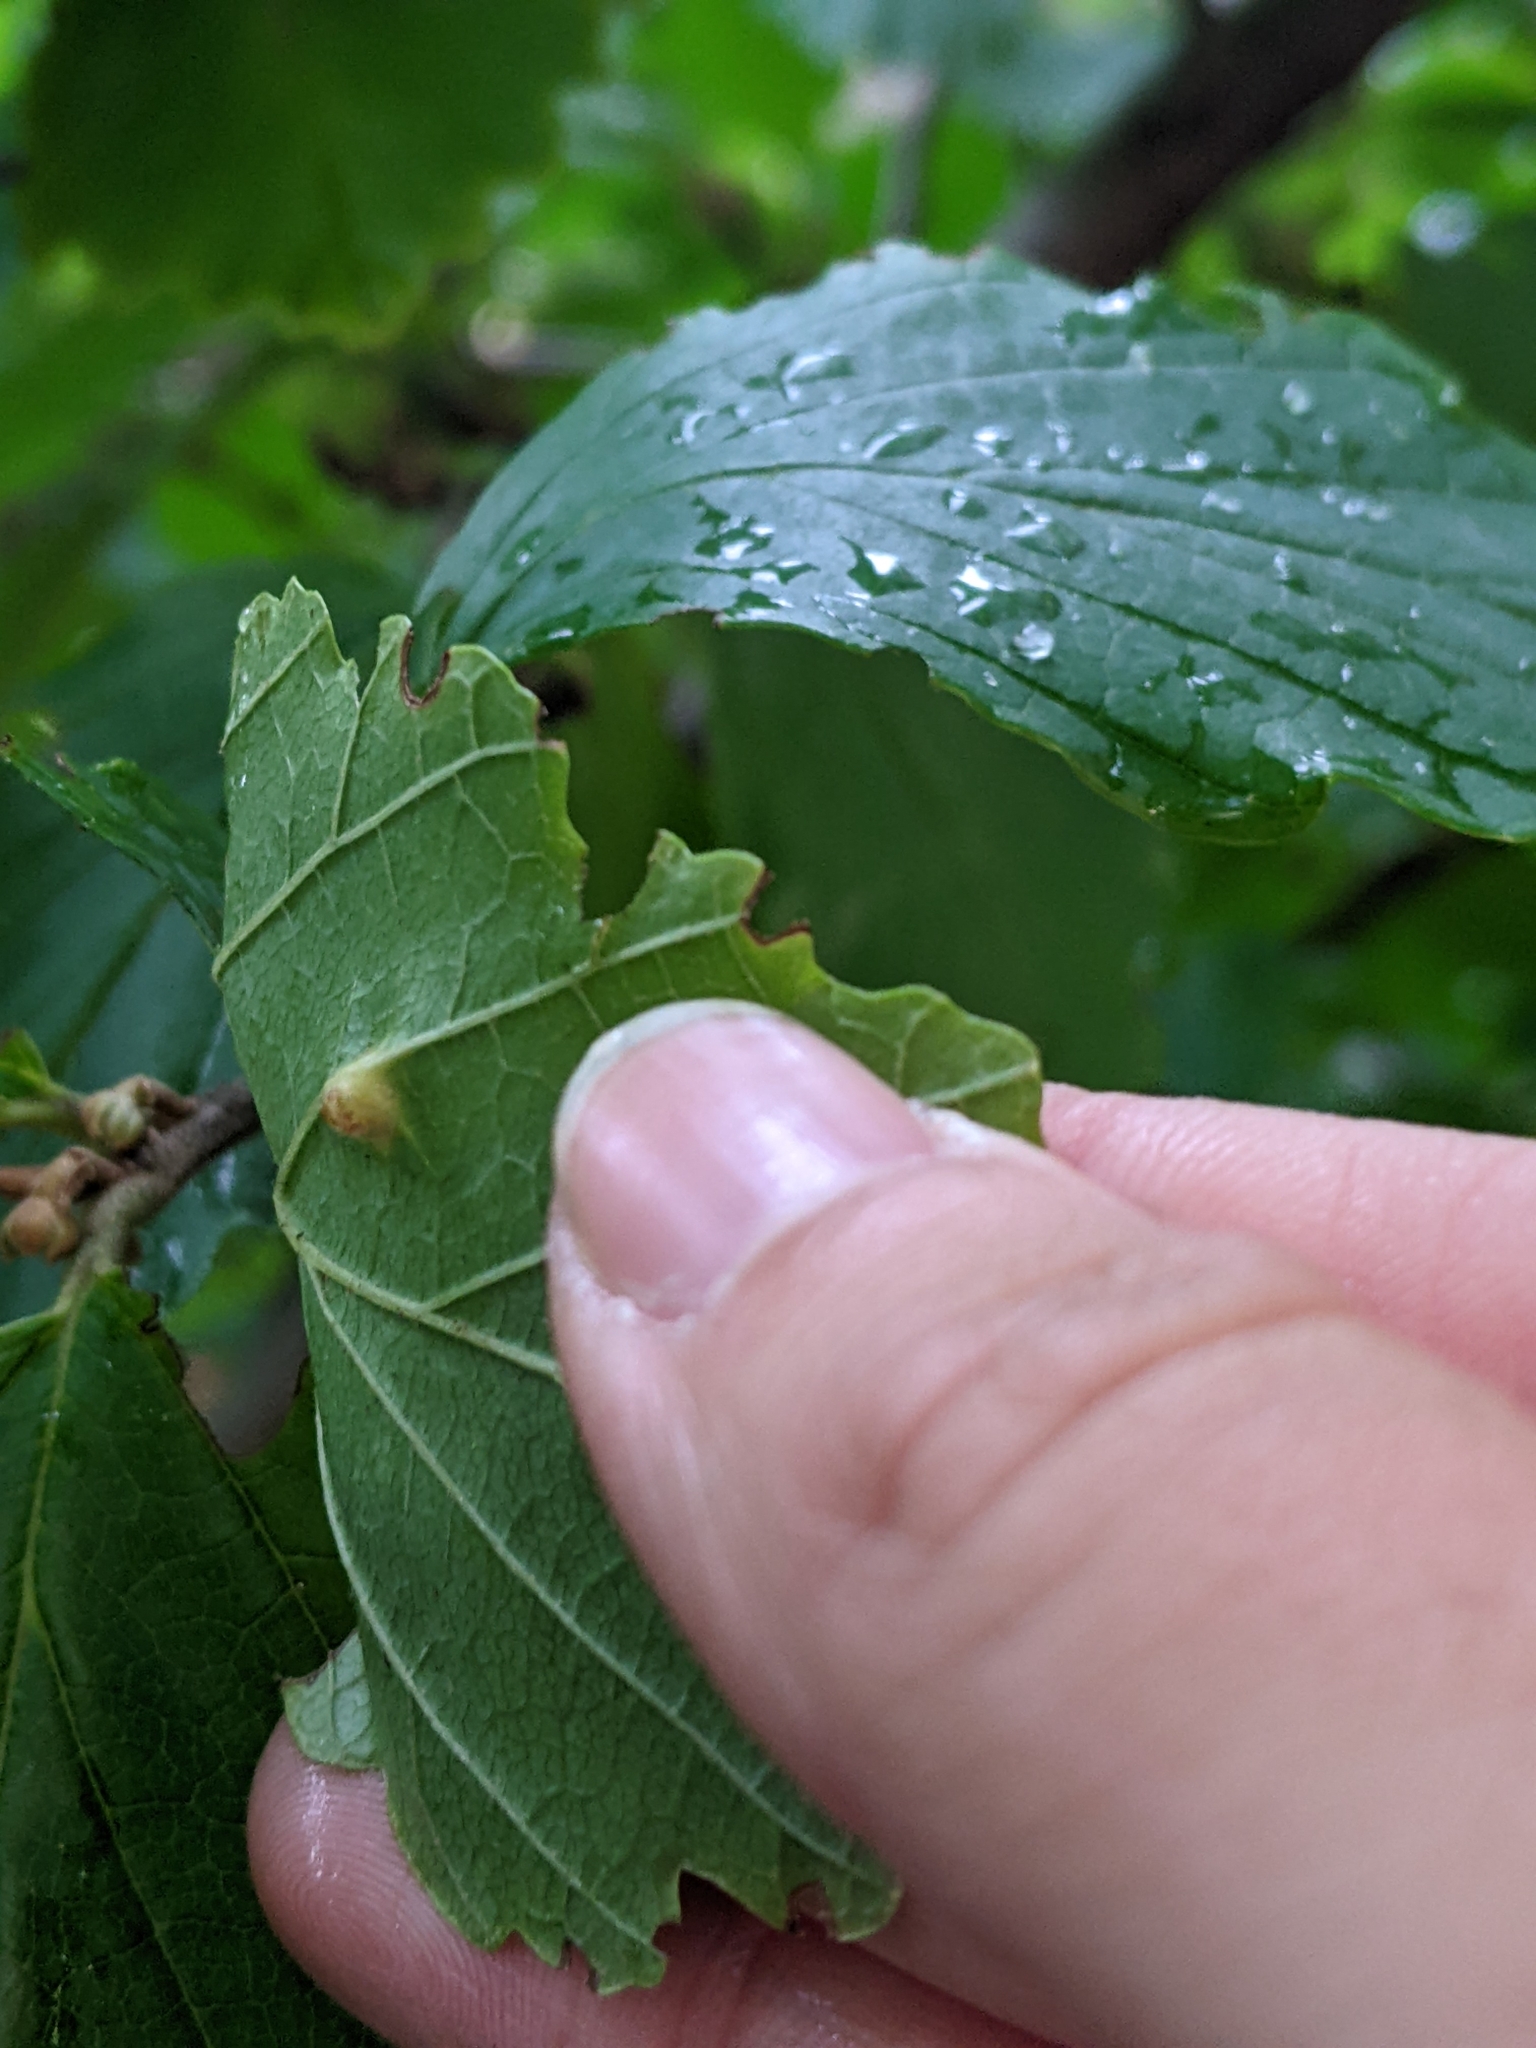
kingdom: Animalia
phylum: Arthropoda
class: Insecta
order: Hemiptera
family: Aphididae
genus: Hormaphis
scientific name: Hormaphis hamamelidis
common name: Witch-hazel cone gall aphid
